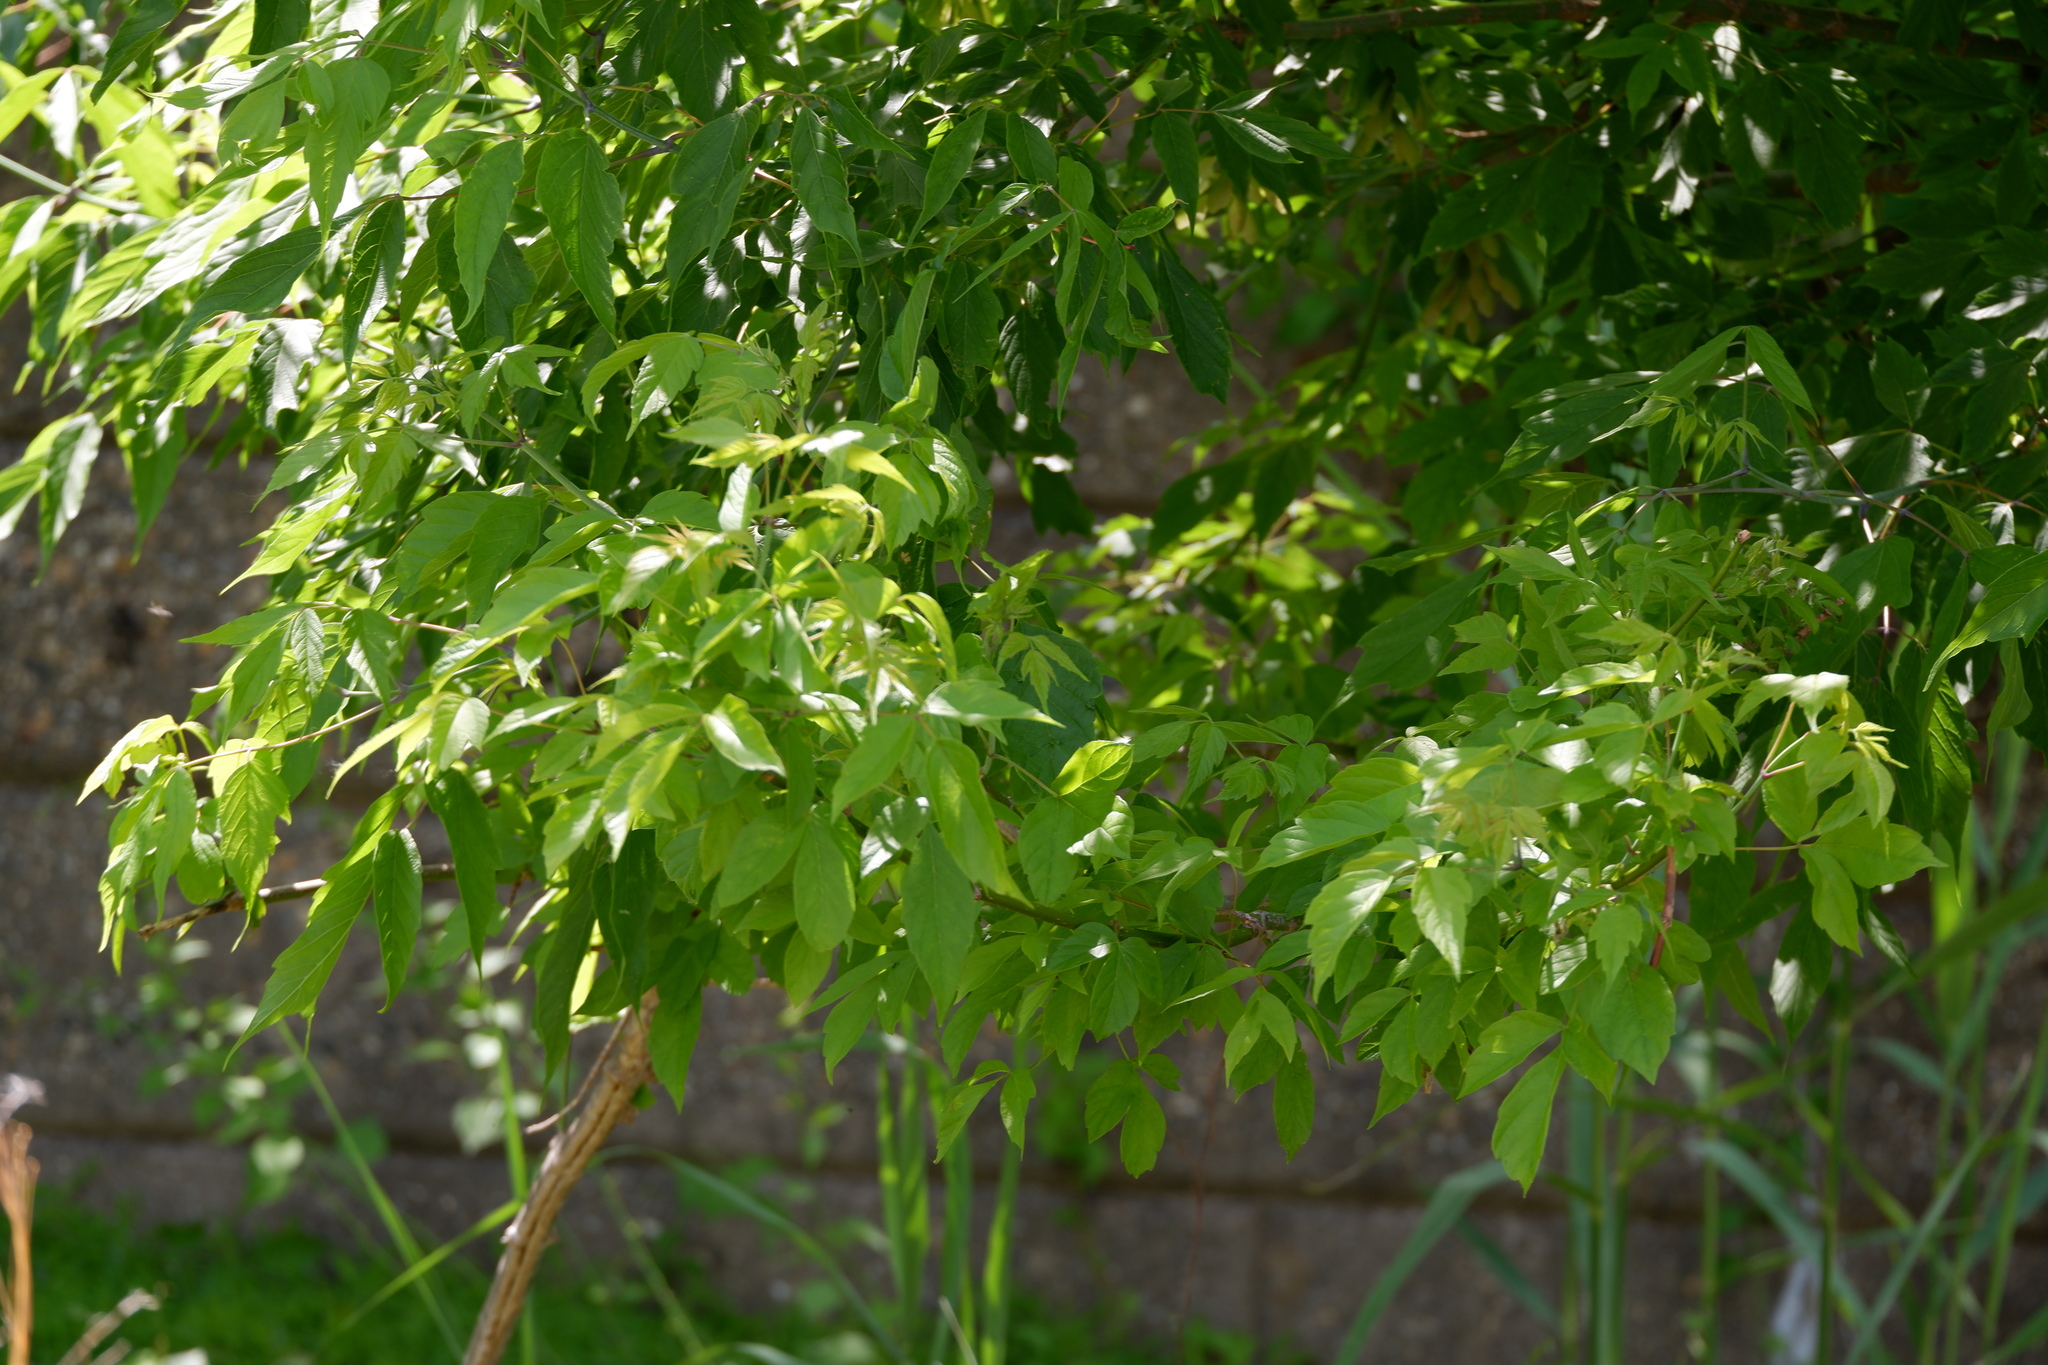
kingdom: Plantae
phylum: Tracheophyta
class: Magnoliopsida
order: Sapindales
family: Sapindaceae
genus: Acer
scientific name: Acer negundo
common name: Ashleaf maple
